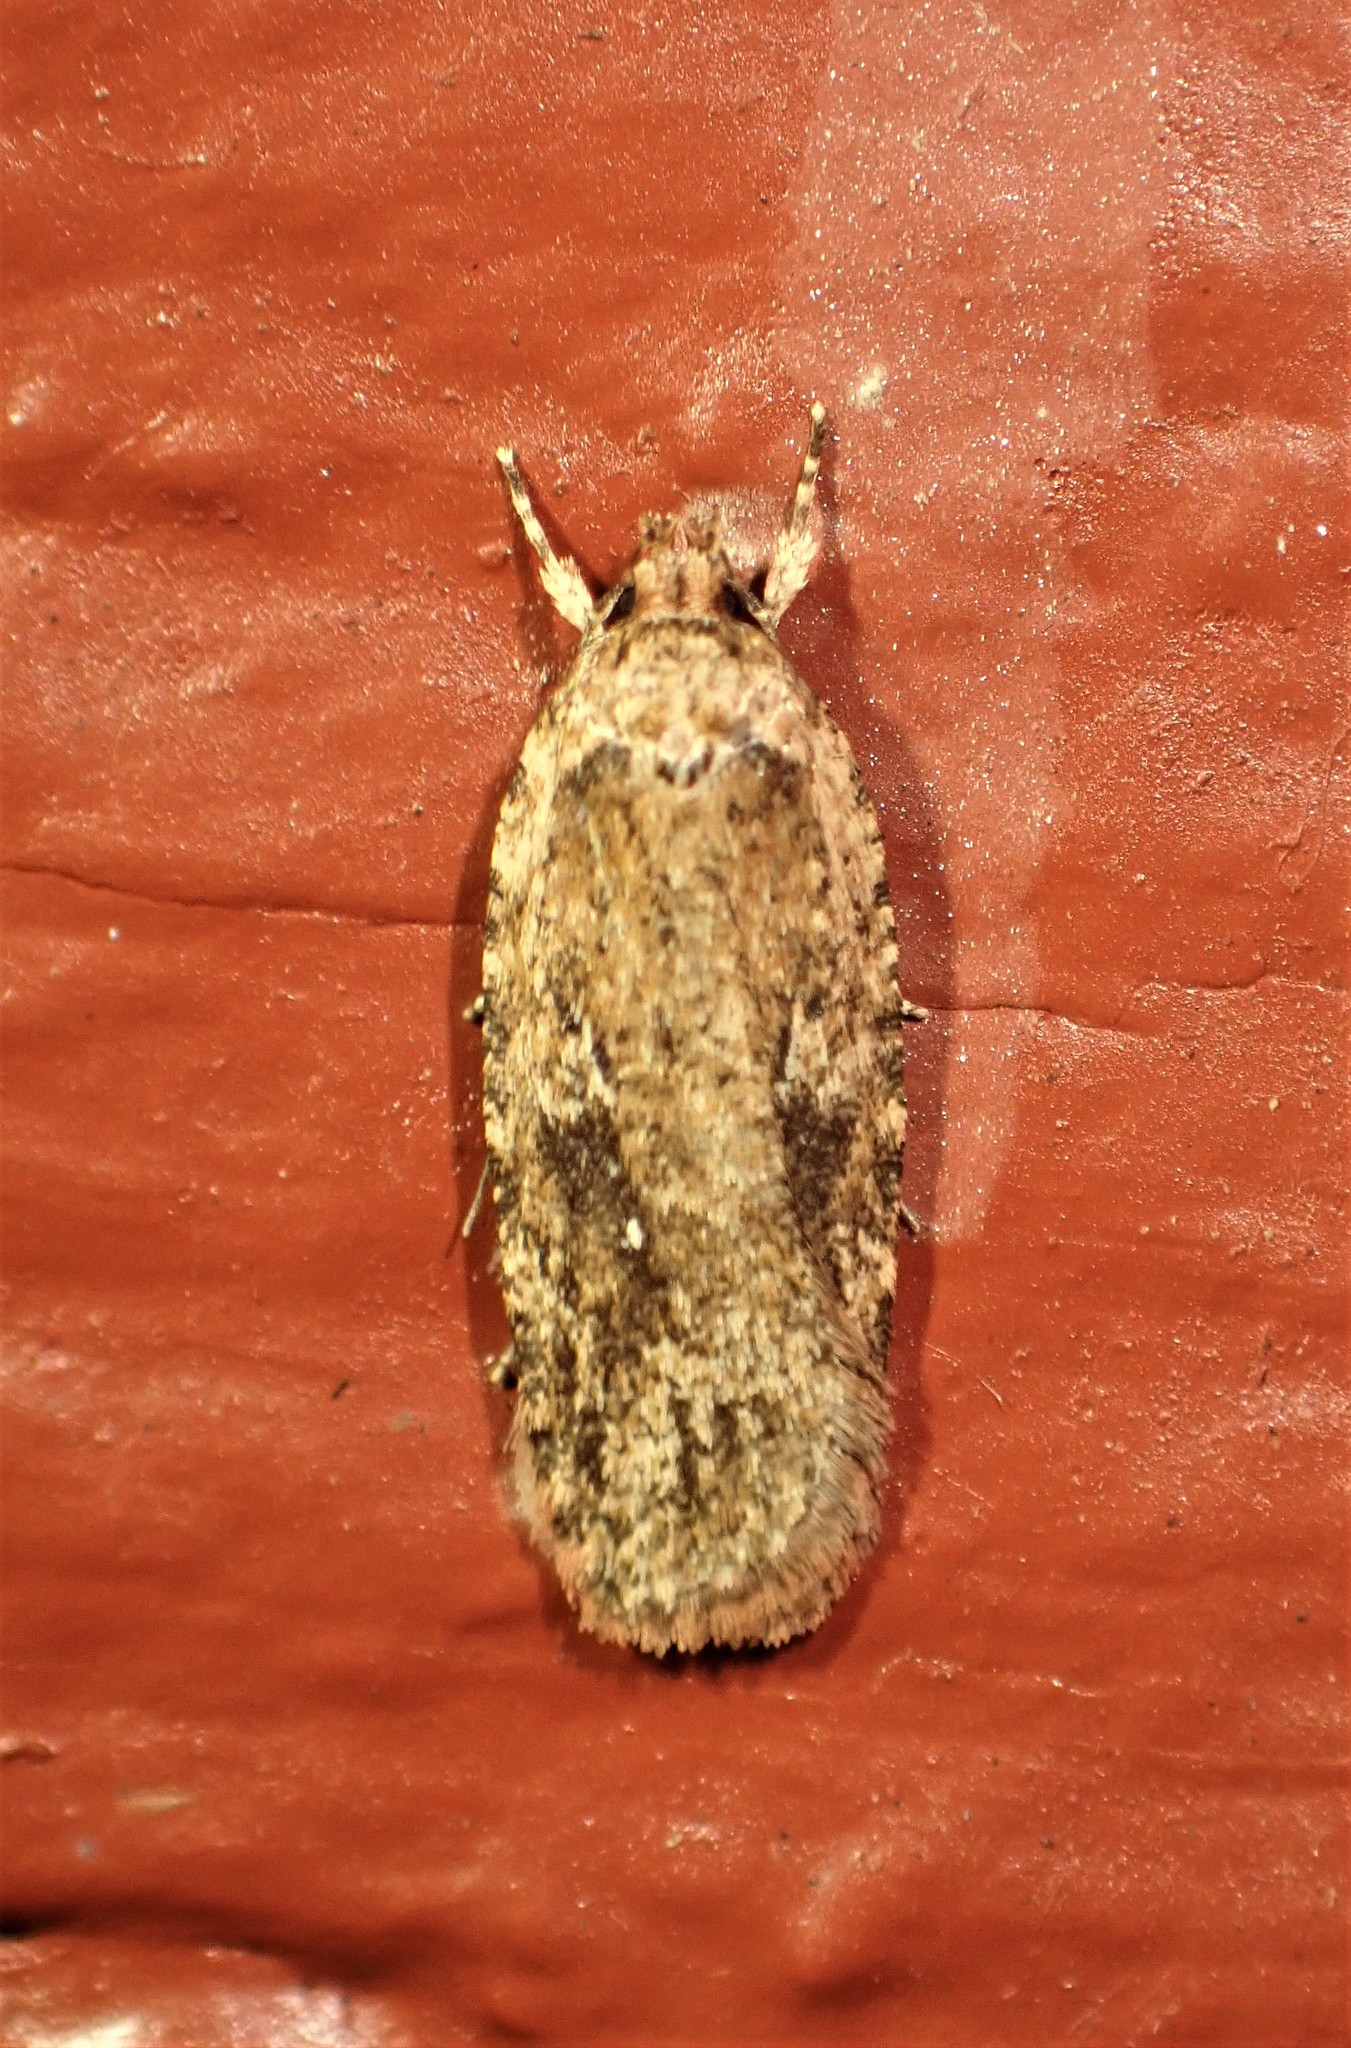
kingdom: Animalia
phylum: Arthropoda
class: Insecta
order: Lepidoptera
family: Depressariidae
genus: Agonopterix
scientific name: Agonopterix pulvipennella
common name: Goldenrod leafffolder
